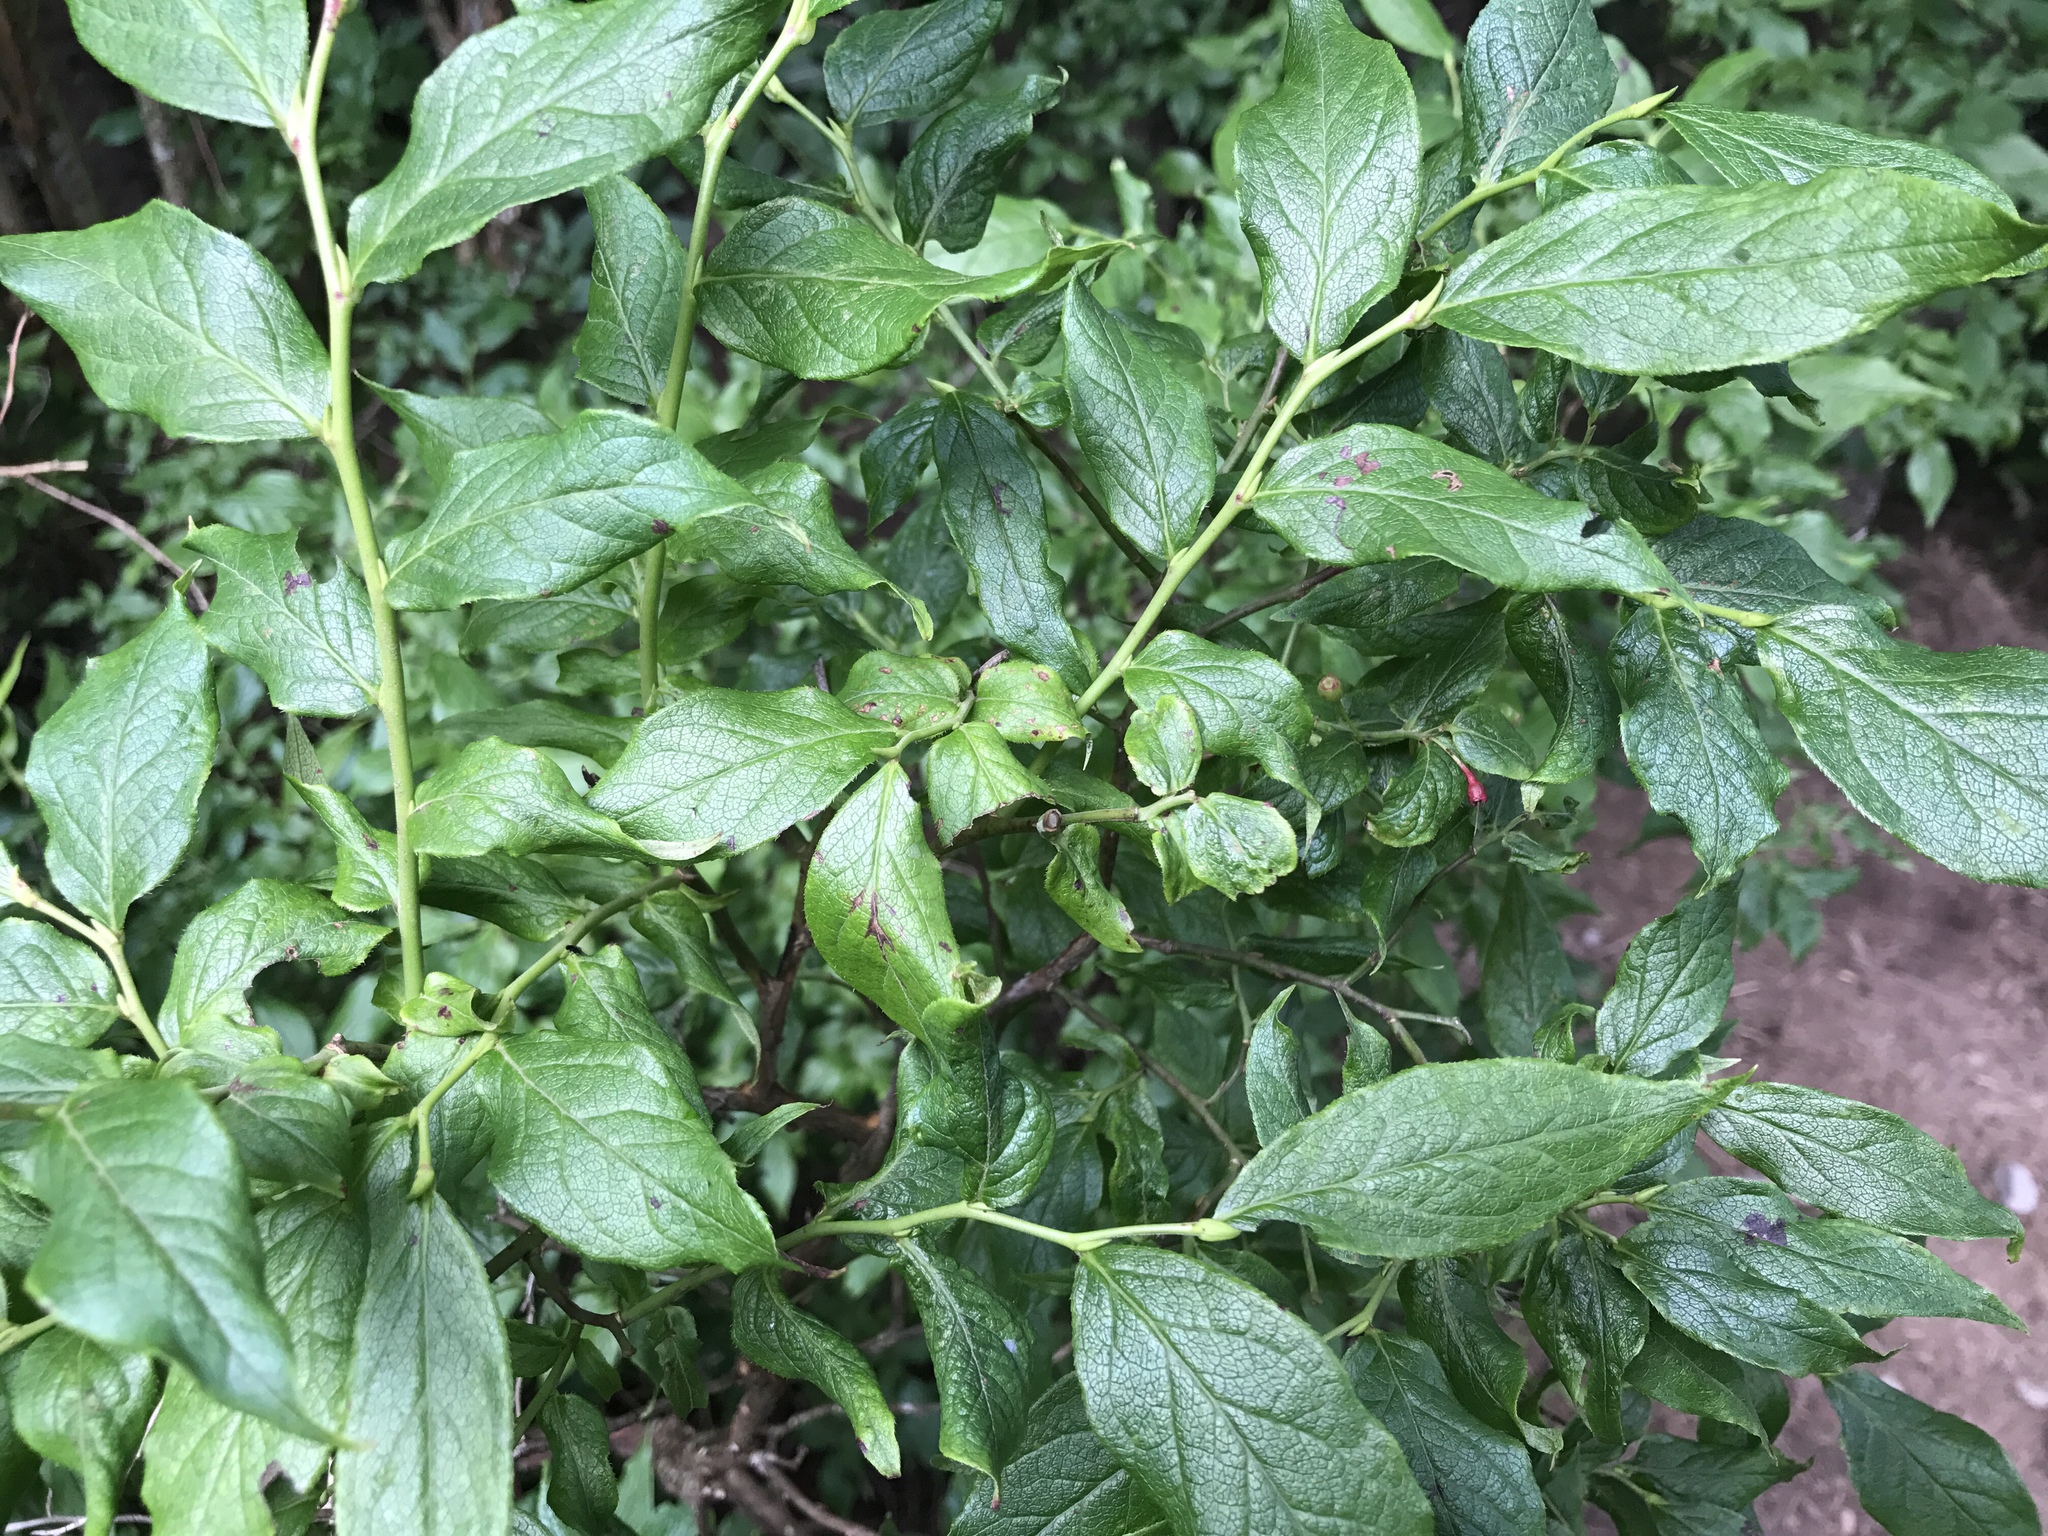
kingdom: Plantae
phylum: Tracheophyta
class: Magnoliopsida
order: Ericales
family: Ericaceae
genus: Vaccinium
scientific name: Vaccinium erythrocarpum
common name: Bearberry
